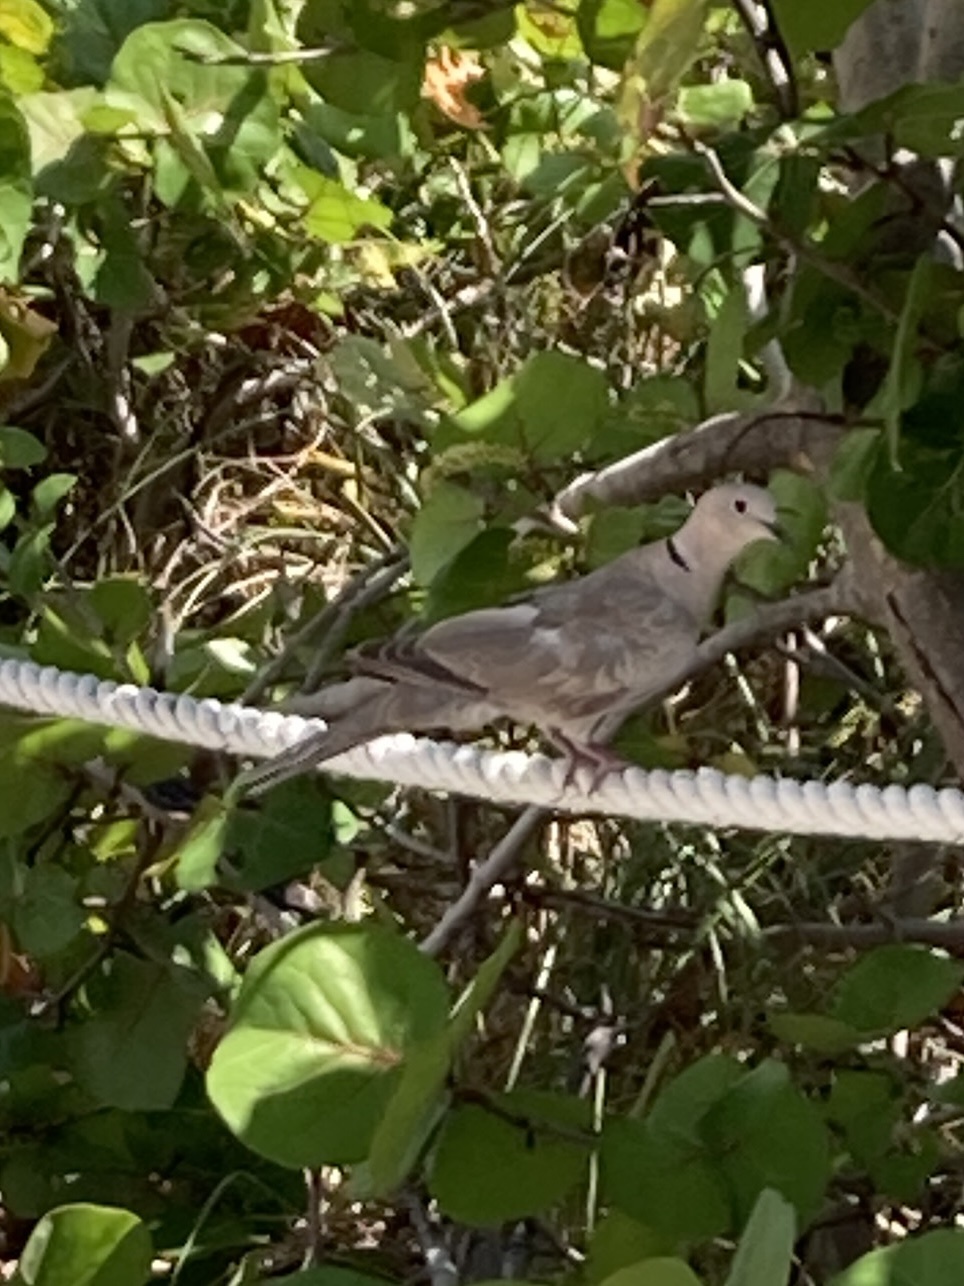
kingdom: Animalia
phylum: Chordata
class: Aves
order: Columbiformes
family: Columbidae
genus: Streptopelia
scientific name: Streptopelia decaocto
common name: Eurasian collared dove
